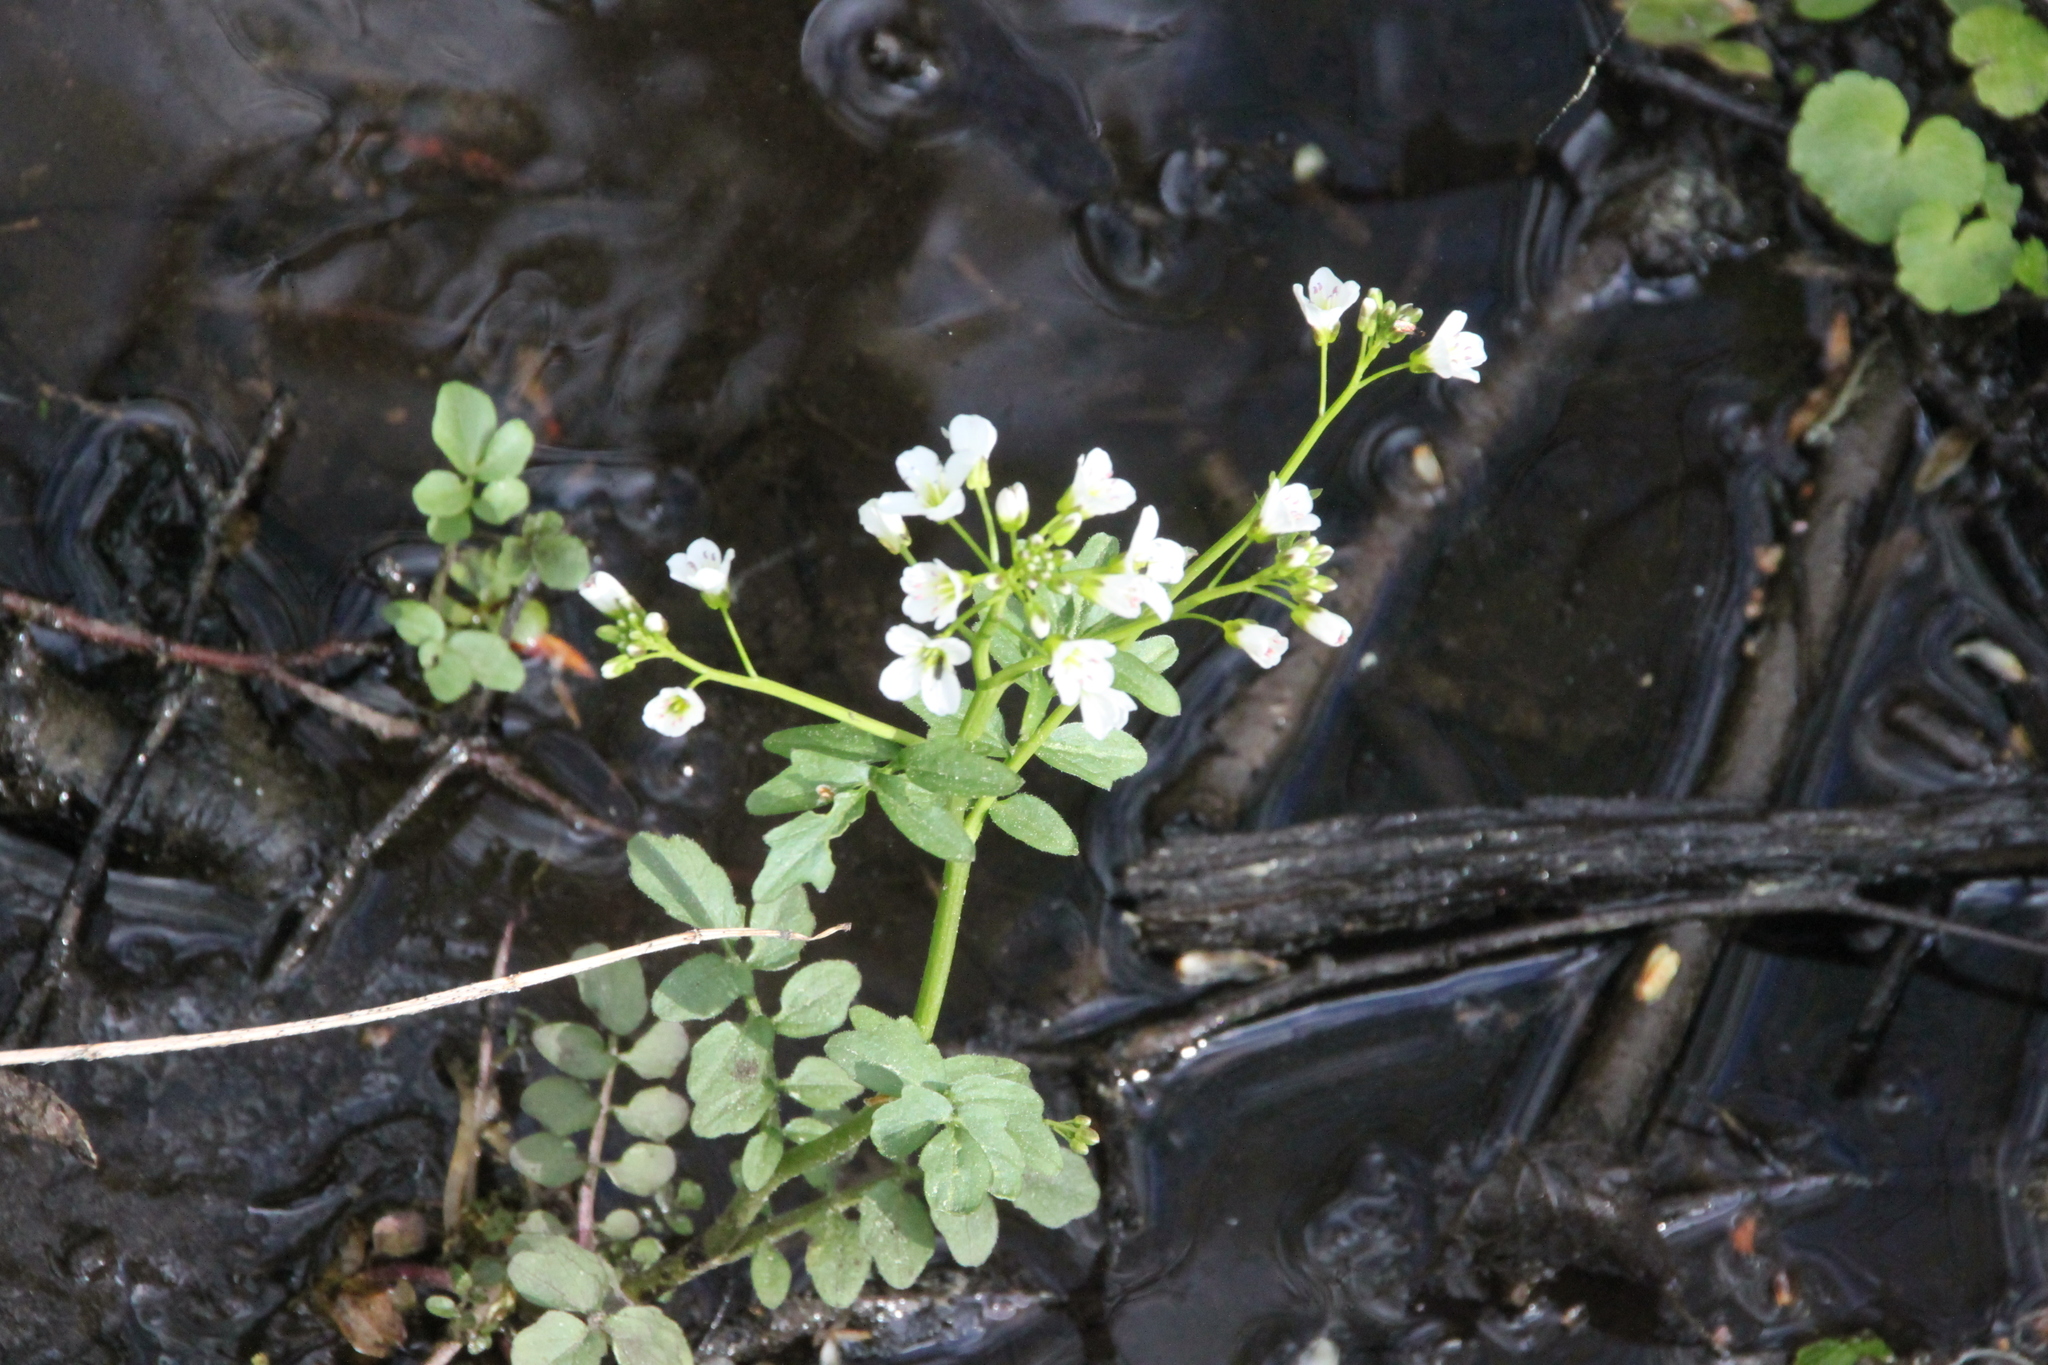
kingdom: Plantae
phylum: Tracheophyta
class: Magnoliopsida
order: Brassicales
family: Brassicaceae
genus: Cardamine
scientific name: Cardamine amara
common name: Large bitter-cress
